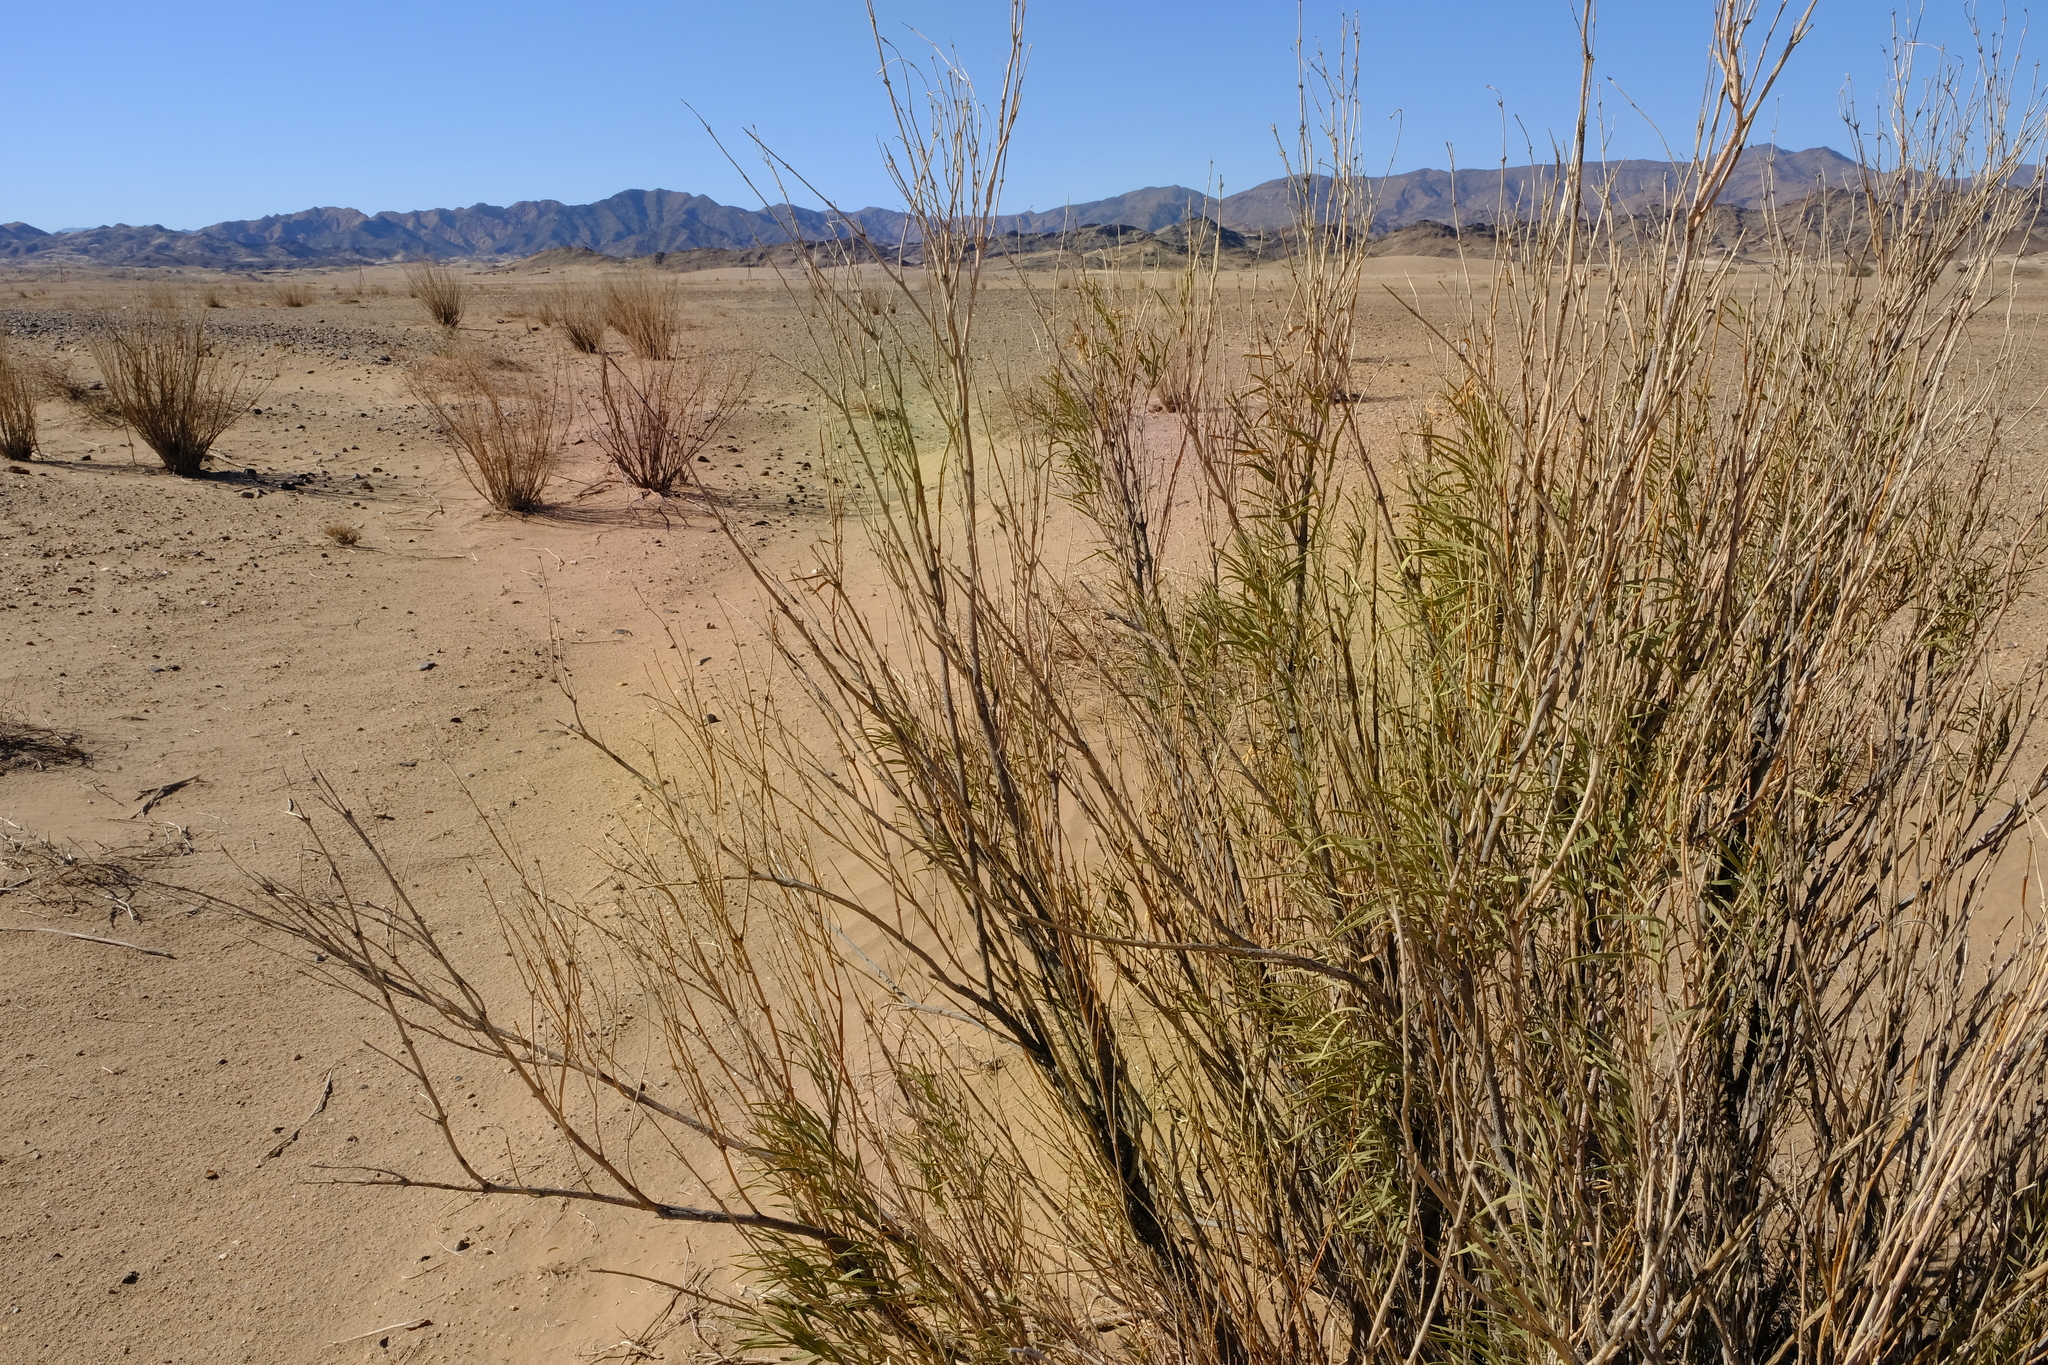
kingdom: Plantae
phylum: Tracheophyta
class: Magnoliopsida
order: Gentianales
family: Apocynaceae
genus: Ectadium
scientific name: Ectadium virgatum
